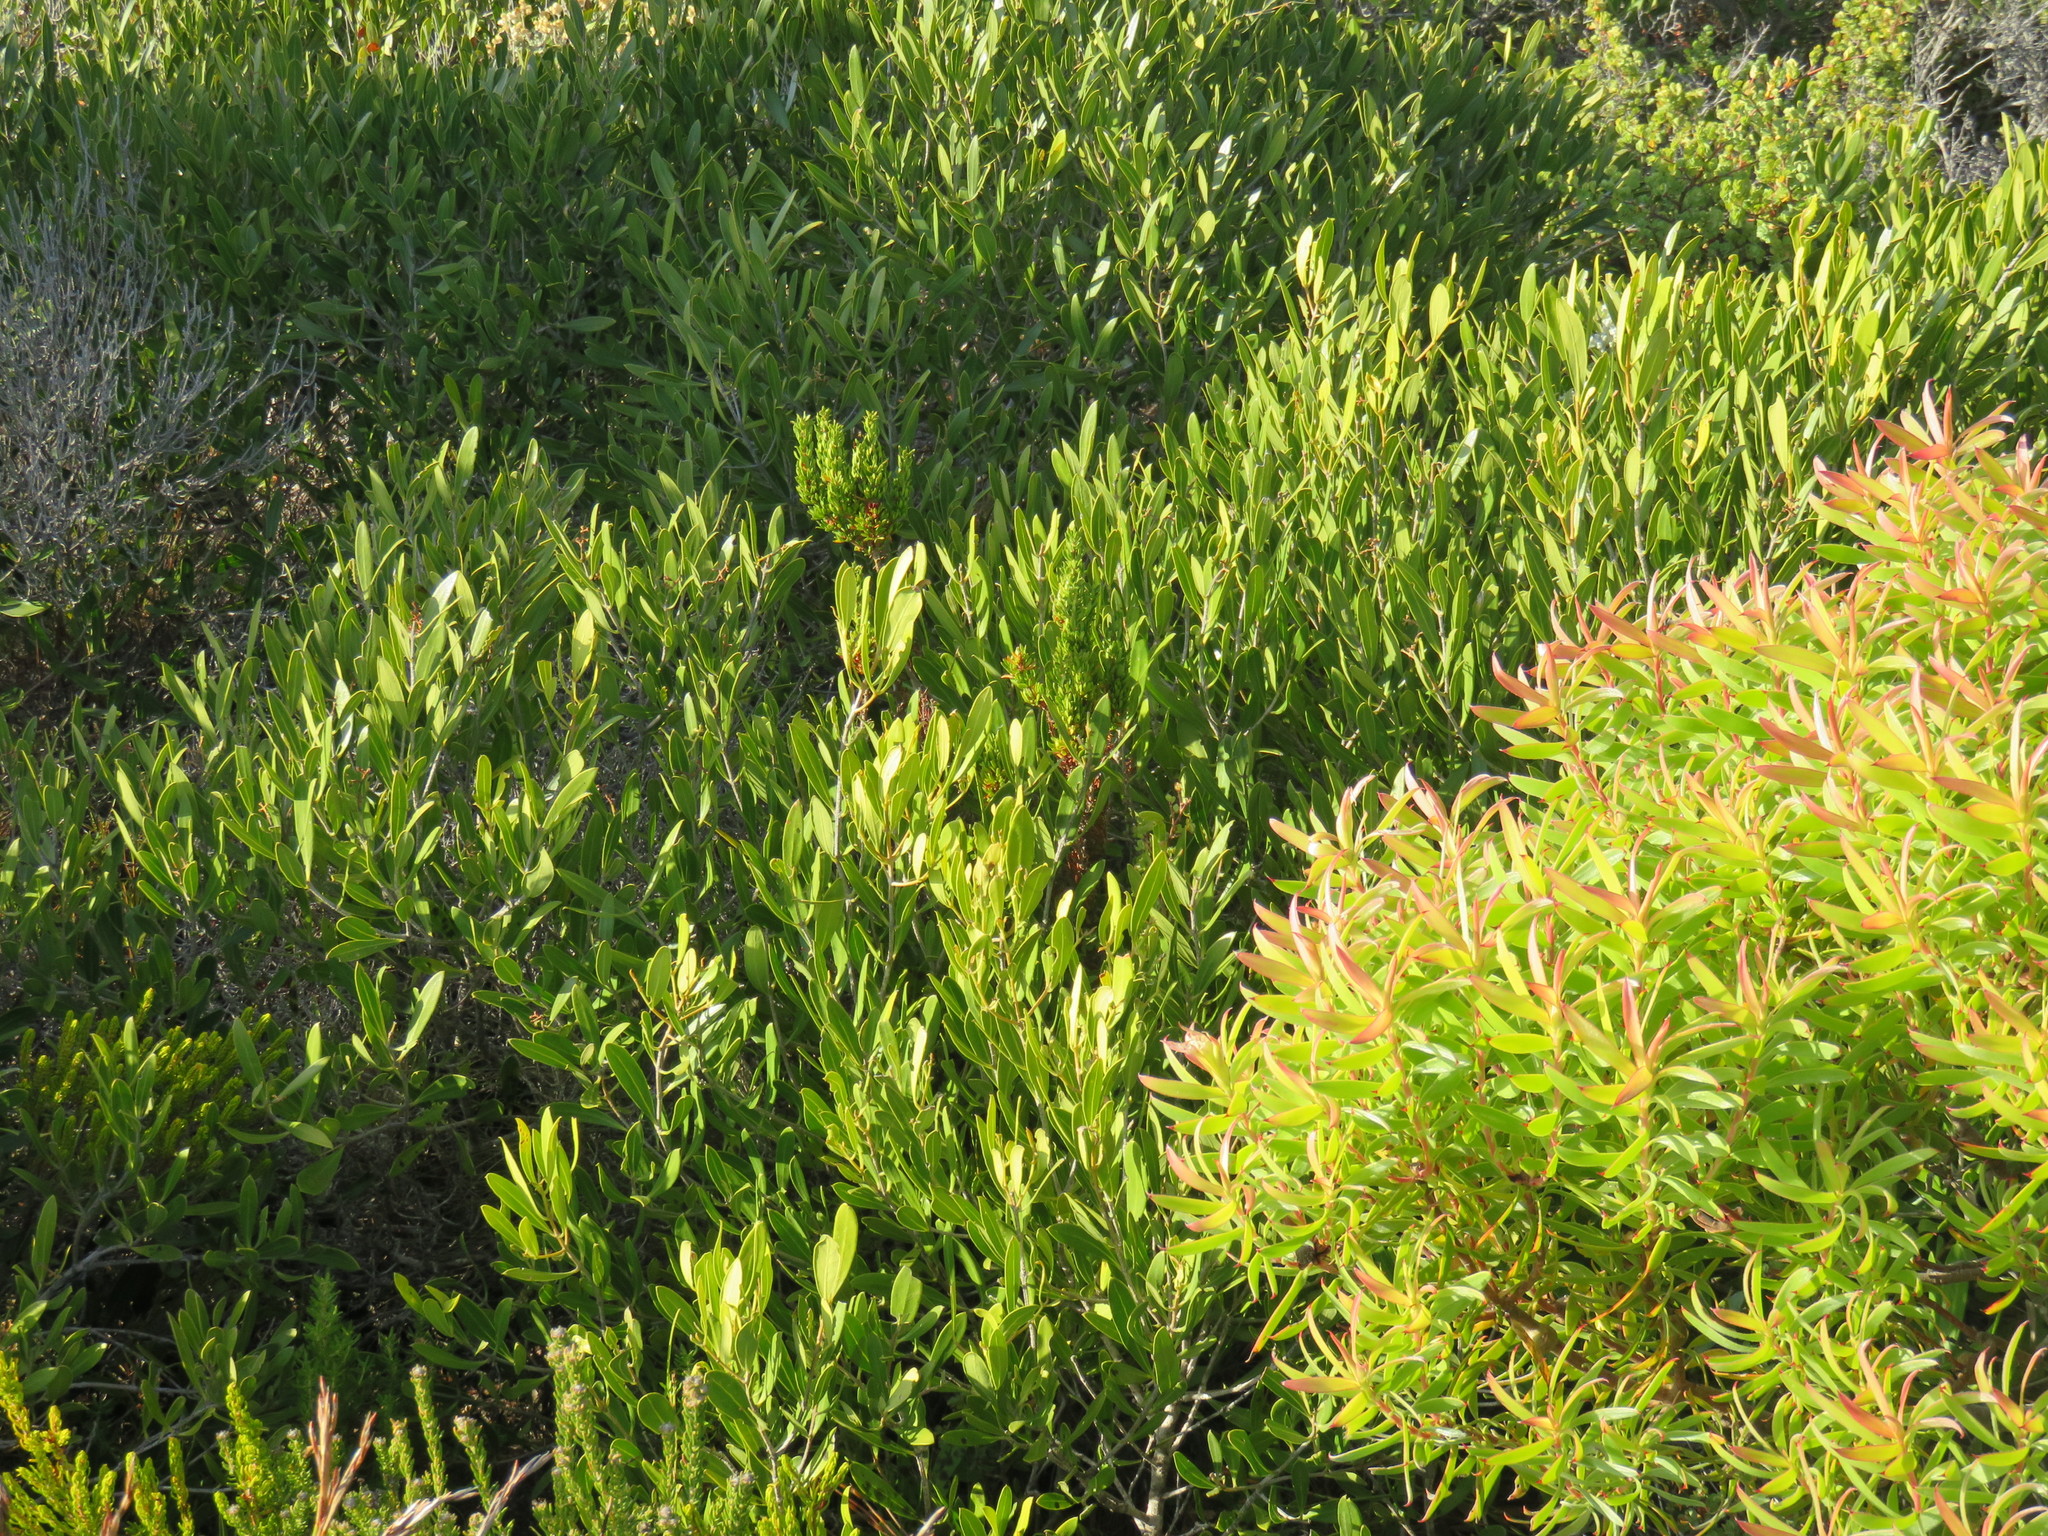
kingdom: Plantae
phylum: Tracheophyta
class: Magnoliopsida
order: Lamiales
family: Oleaceae
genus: Olea
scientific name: Olea exasperata
